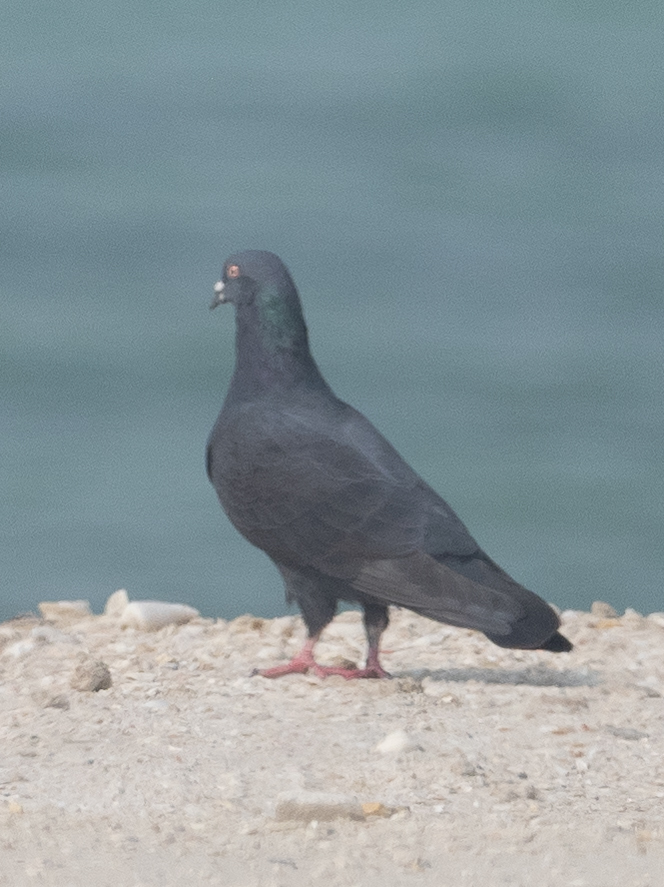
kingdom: Animalia
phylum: Chordata
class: Aves
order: Columbiformes
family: Columbidae
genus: Columba
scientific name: Columba livia
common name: Rock pigeon
